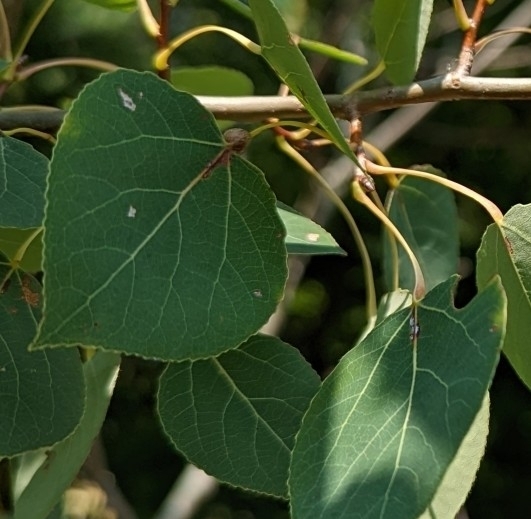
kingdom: Animalia
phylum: Arthropoda
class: Insecta
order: Lepidoptera
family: Nepticulidae
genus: Ectoedemia
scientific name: Ectoedemia populella
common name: Aspen petiole gall moth
